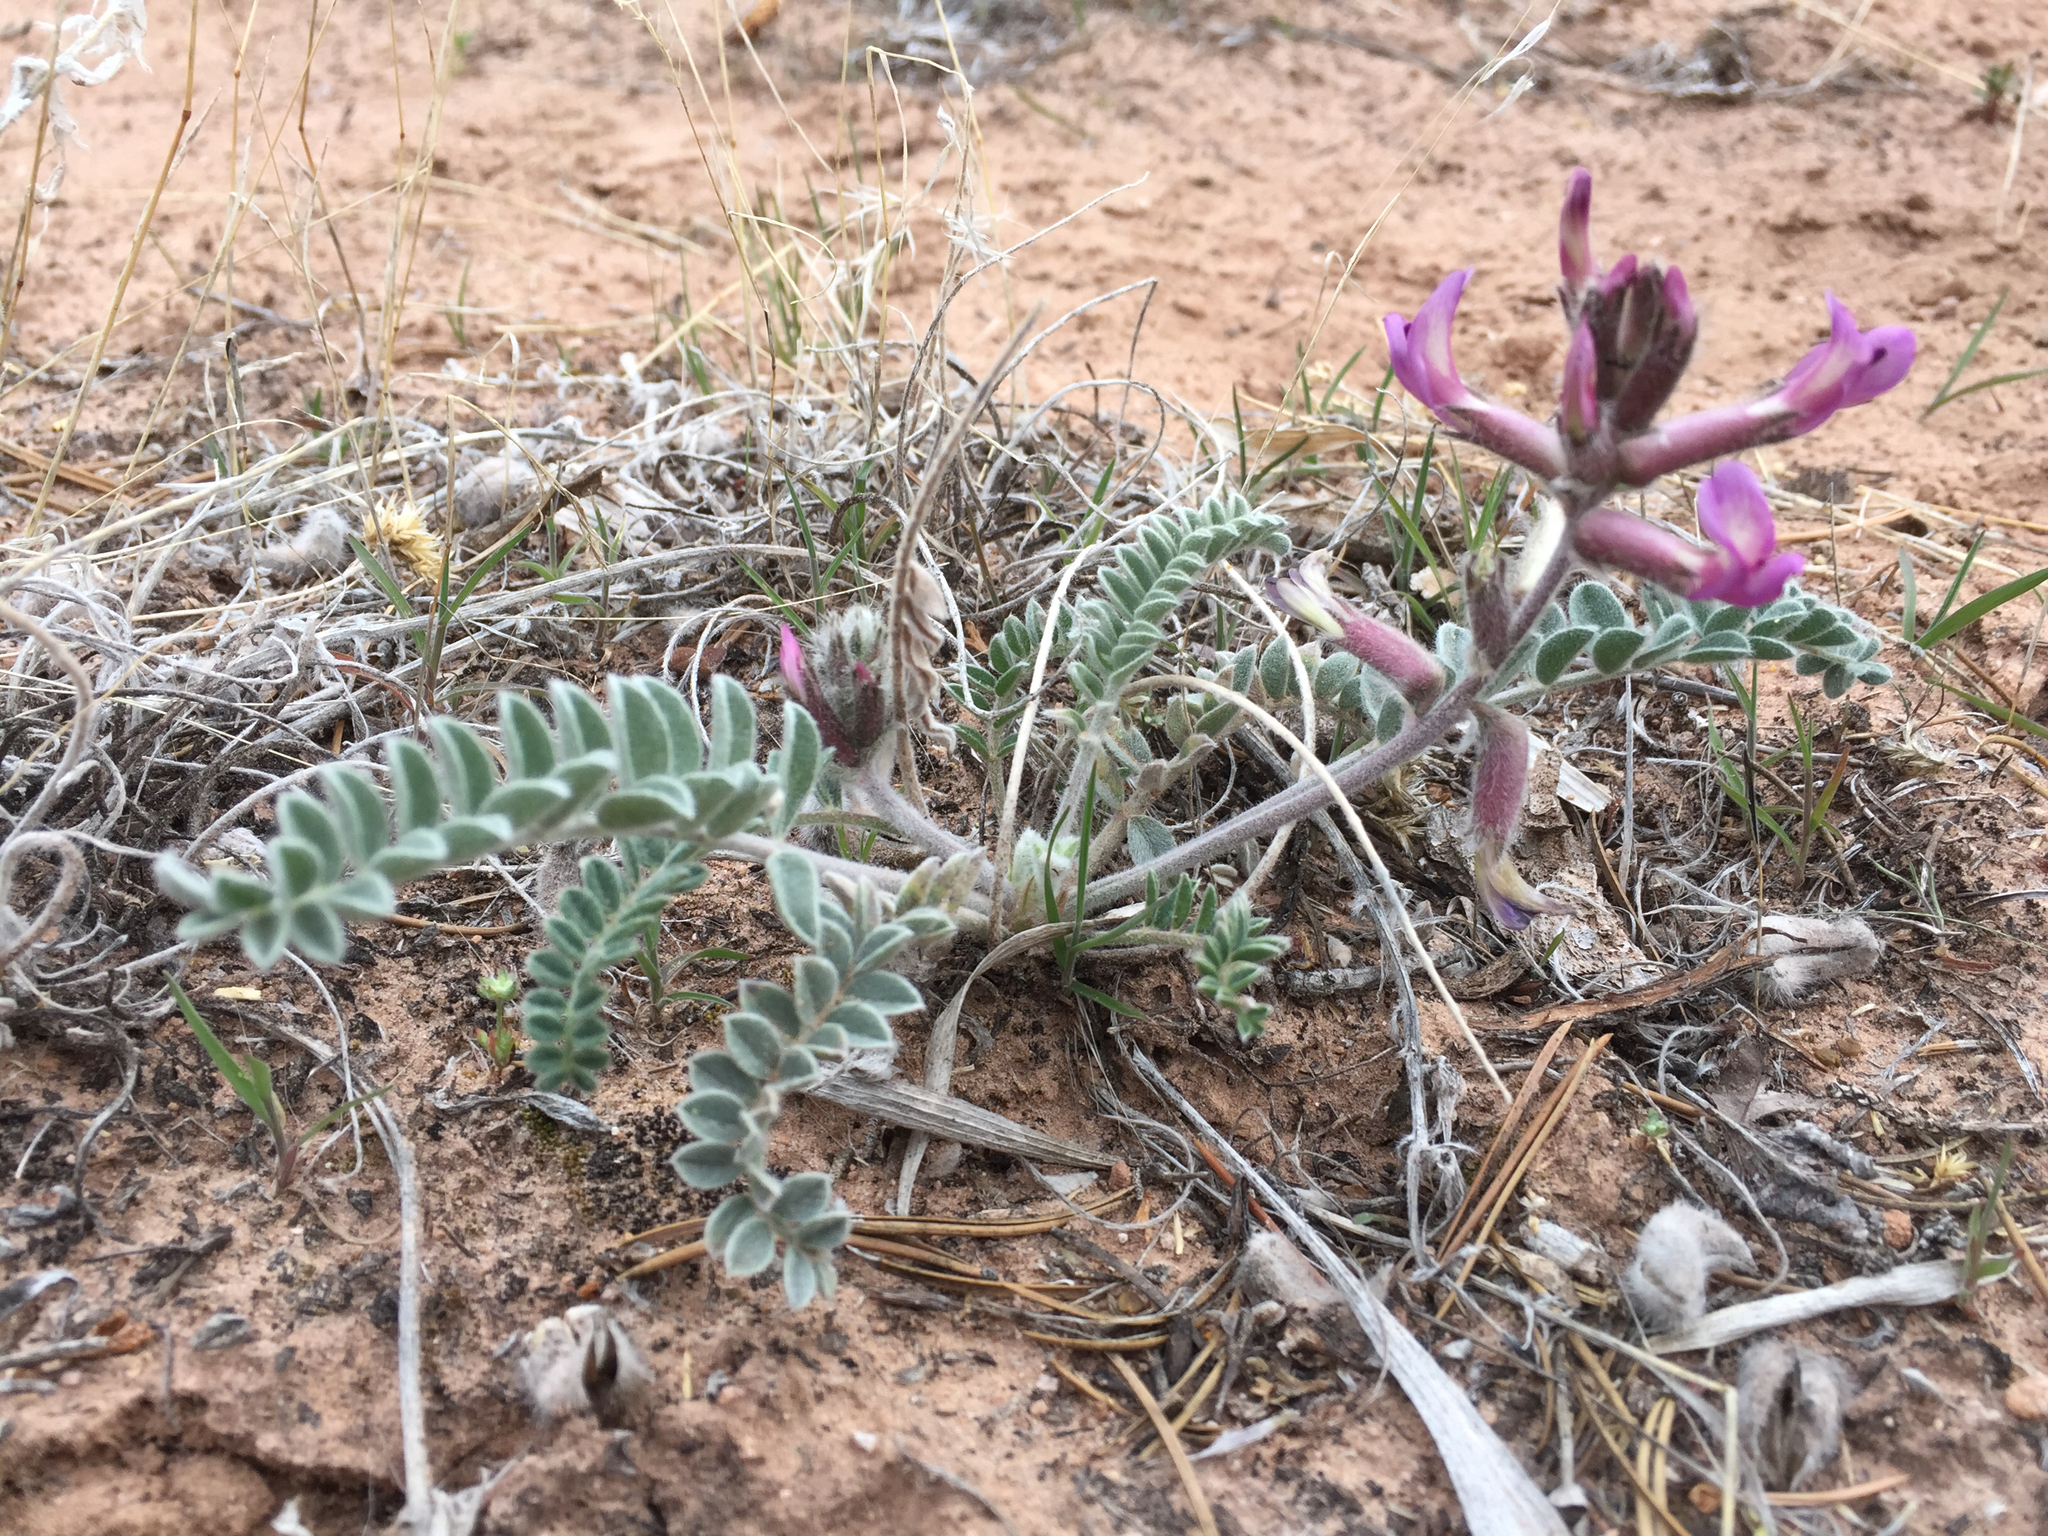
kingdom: Plantae
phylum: Tracheophyta
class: Magnoliopsida
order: Fabales
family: Fabaceae
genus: Astragalus
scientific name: Astragalus mollissimus
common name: Woolly locoweed
